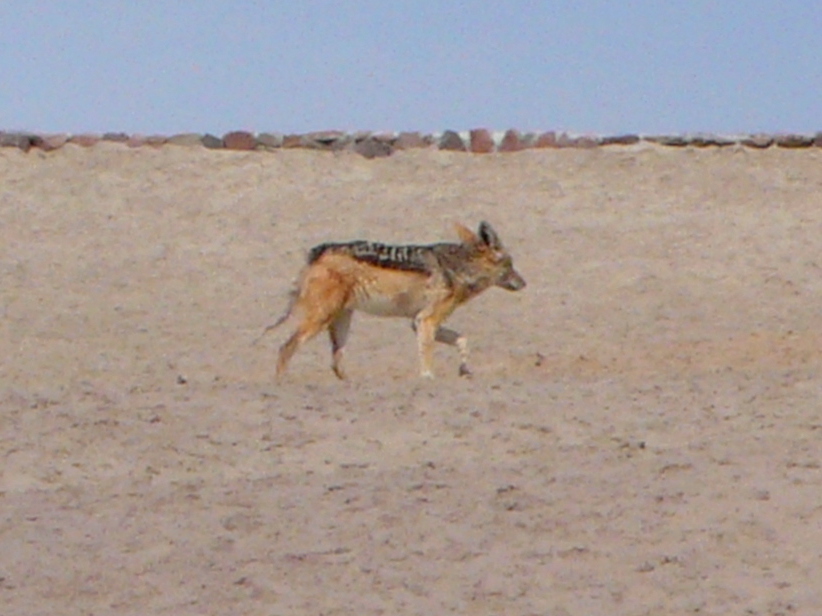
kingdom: Animalia
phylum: Chordata
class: Mammalia
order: Carnivora
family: Canidae
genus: Lupulella
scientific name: Lupulella
